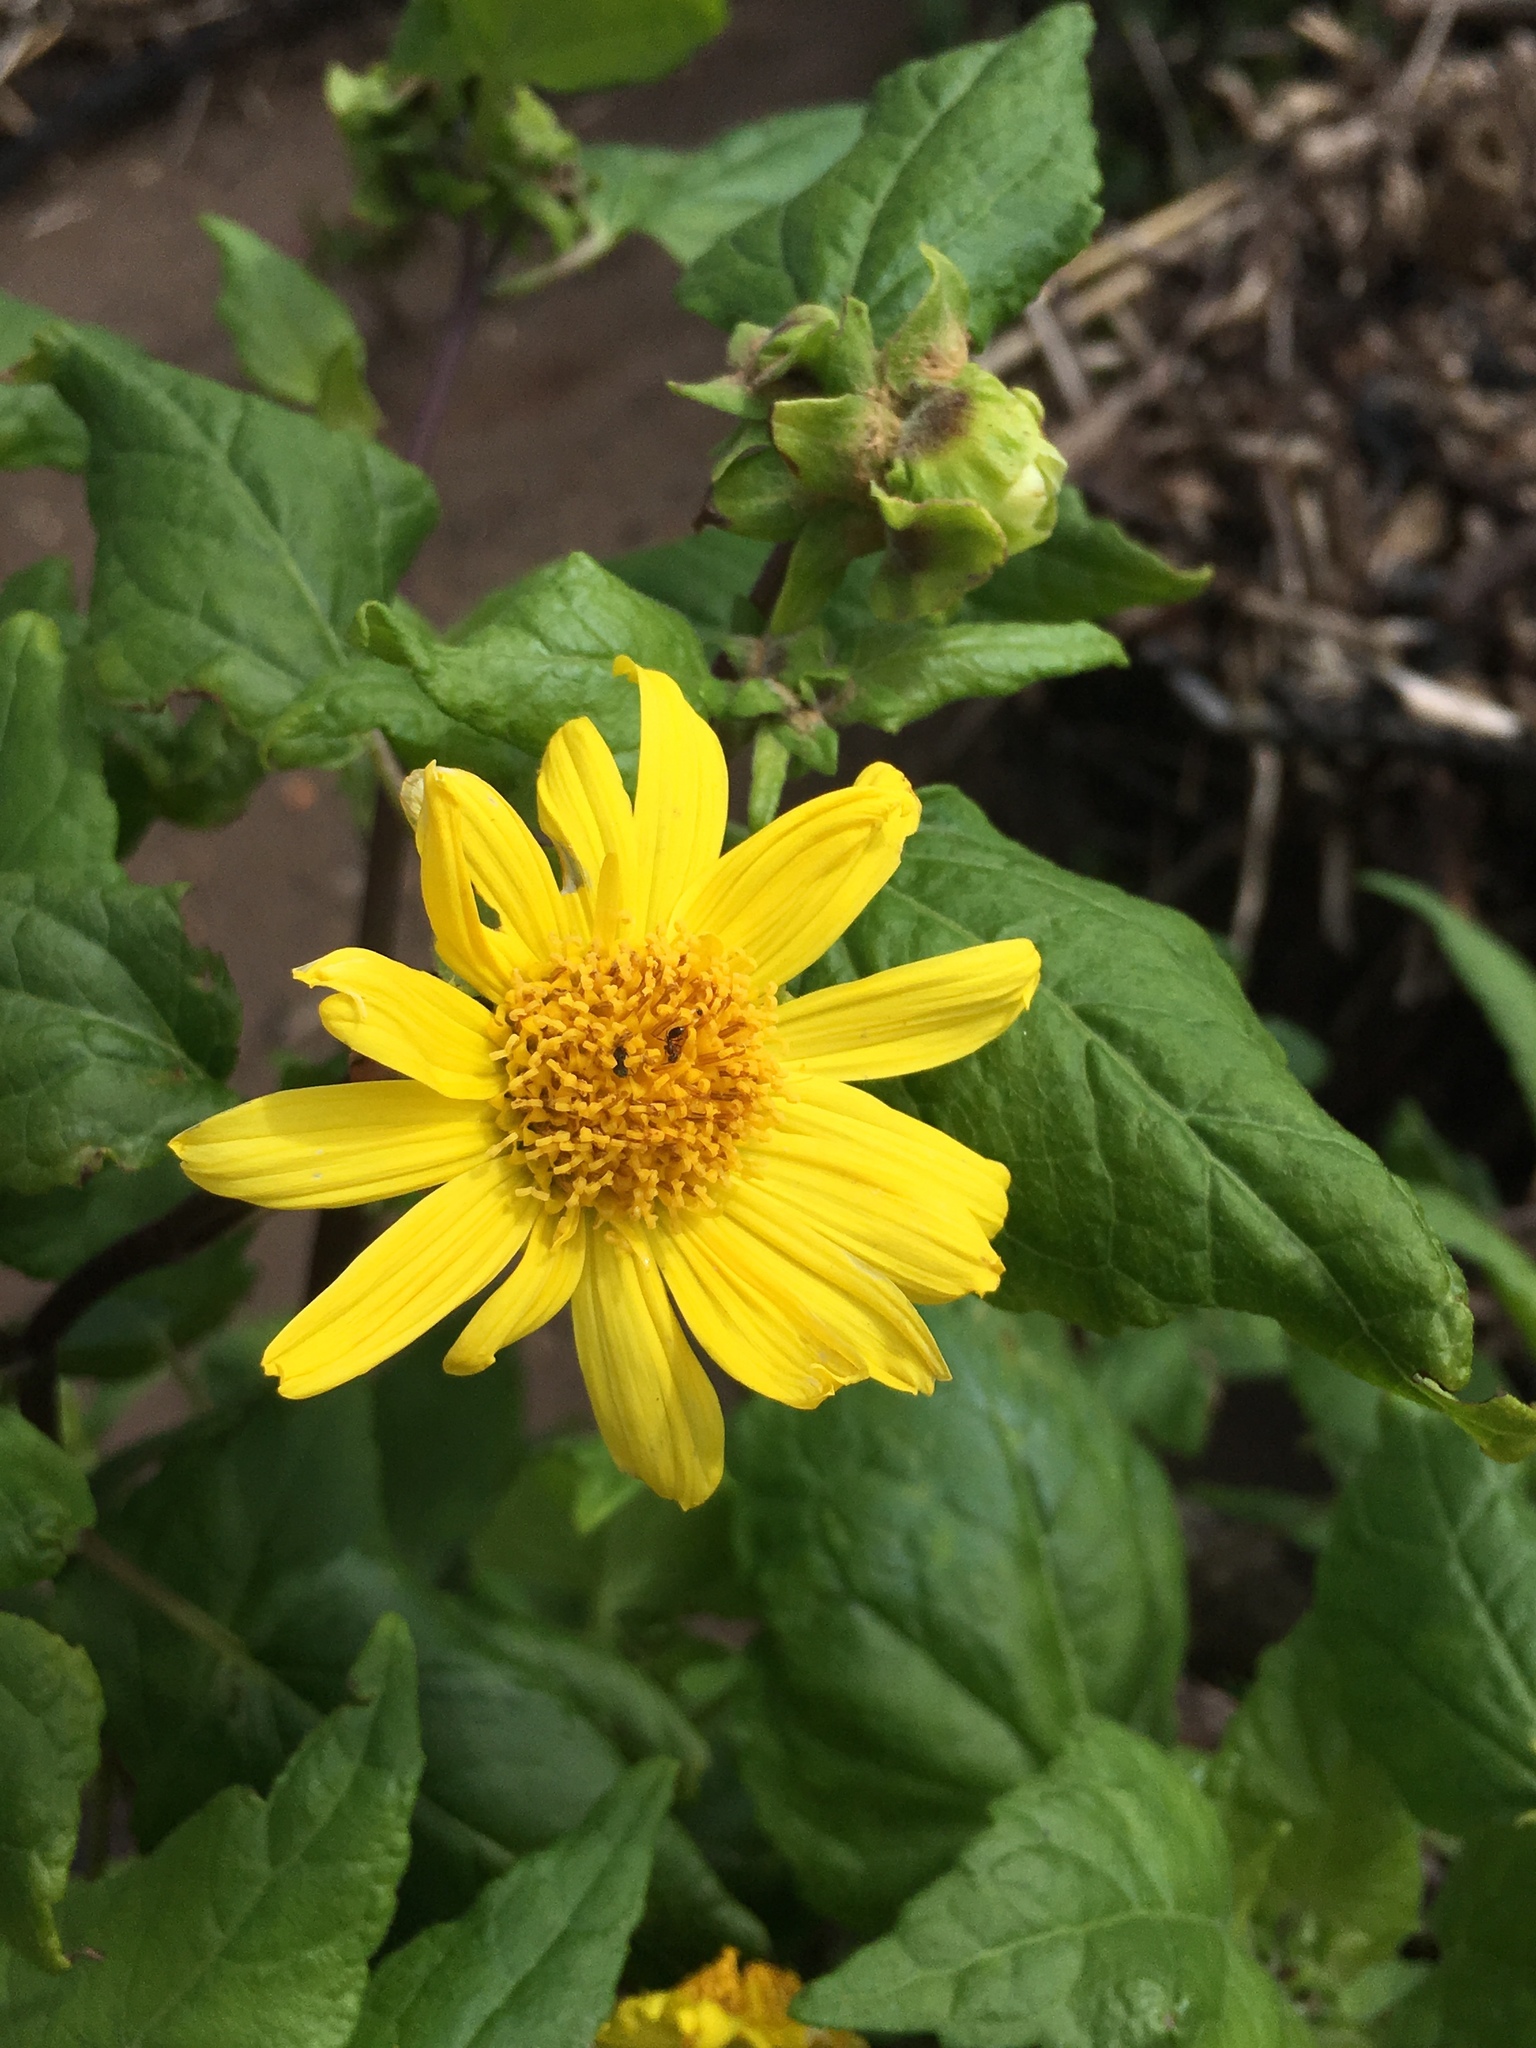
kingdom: Plantae
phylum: Tracheophyta
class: Magnoliopsida
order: Asterales
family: Asteraceae
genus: Venegasia
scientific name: Venegasia carpesioides
